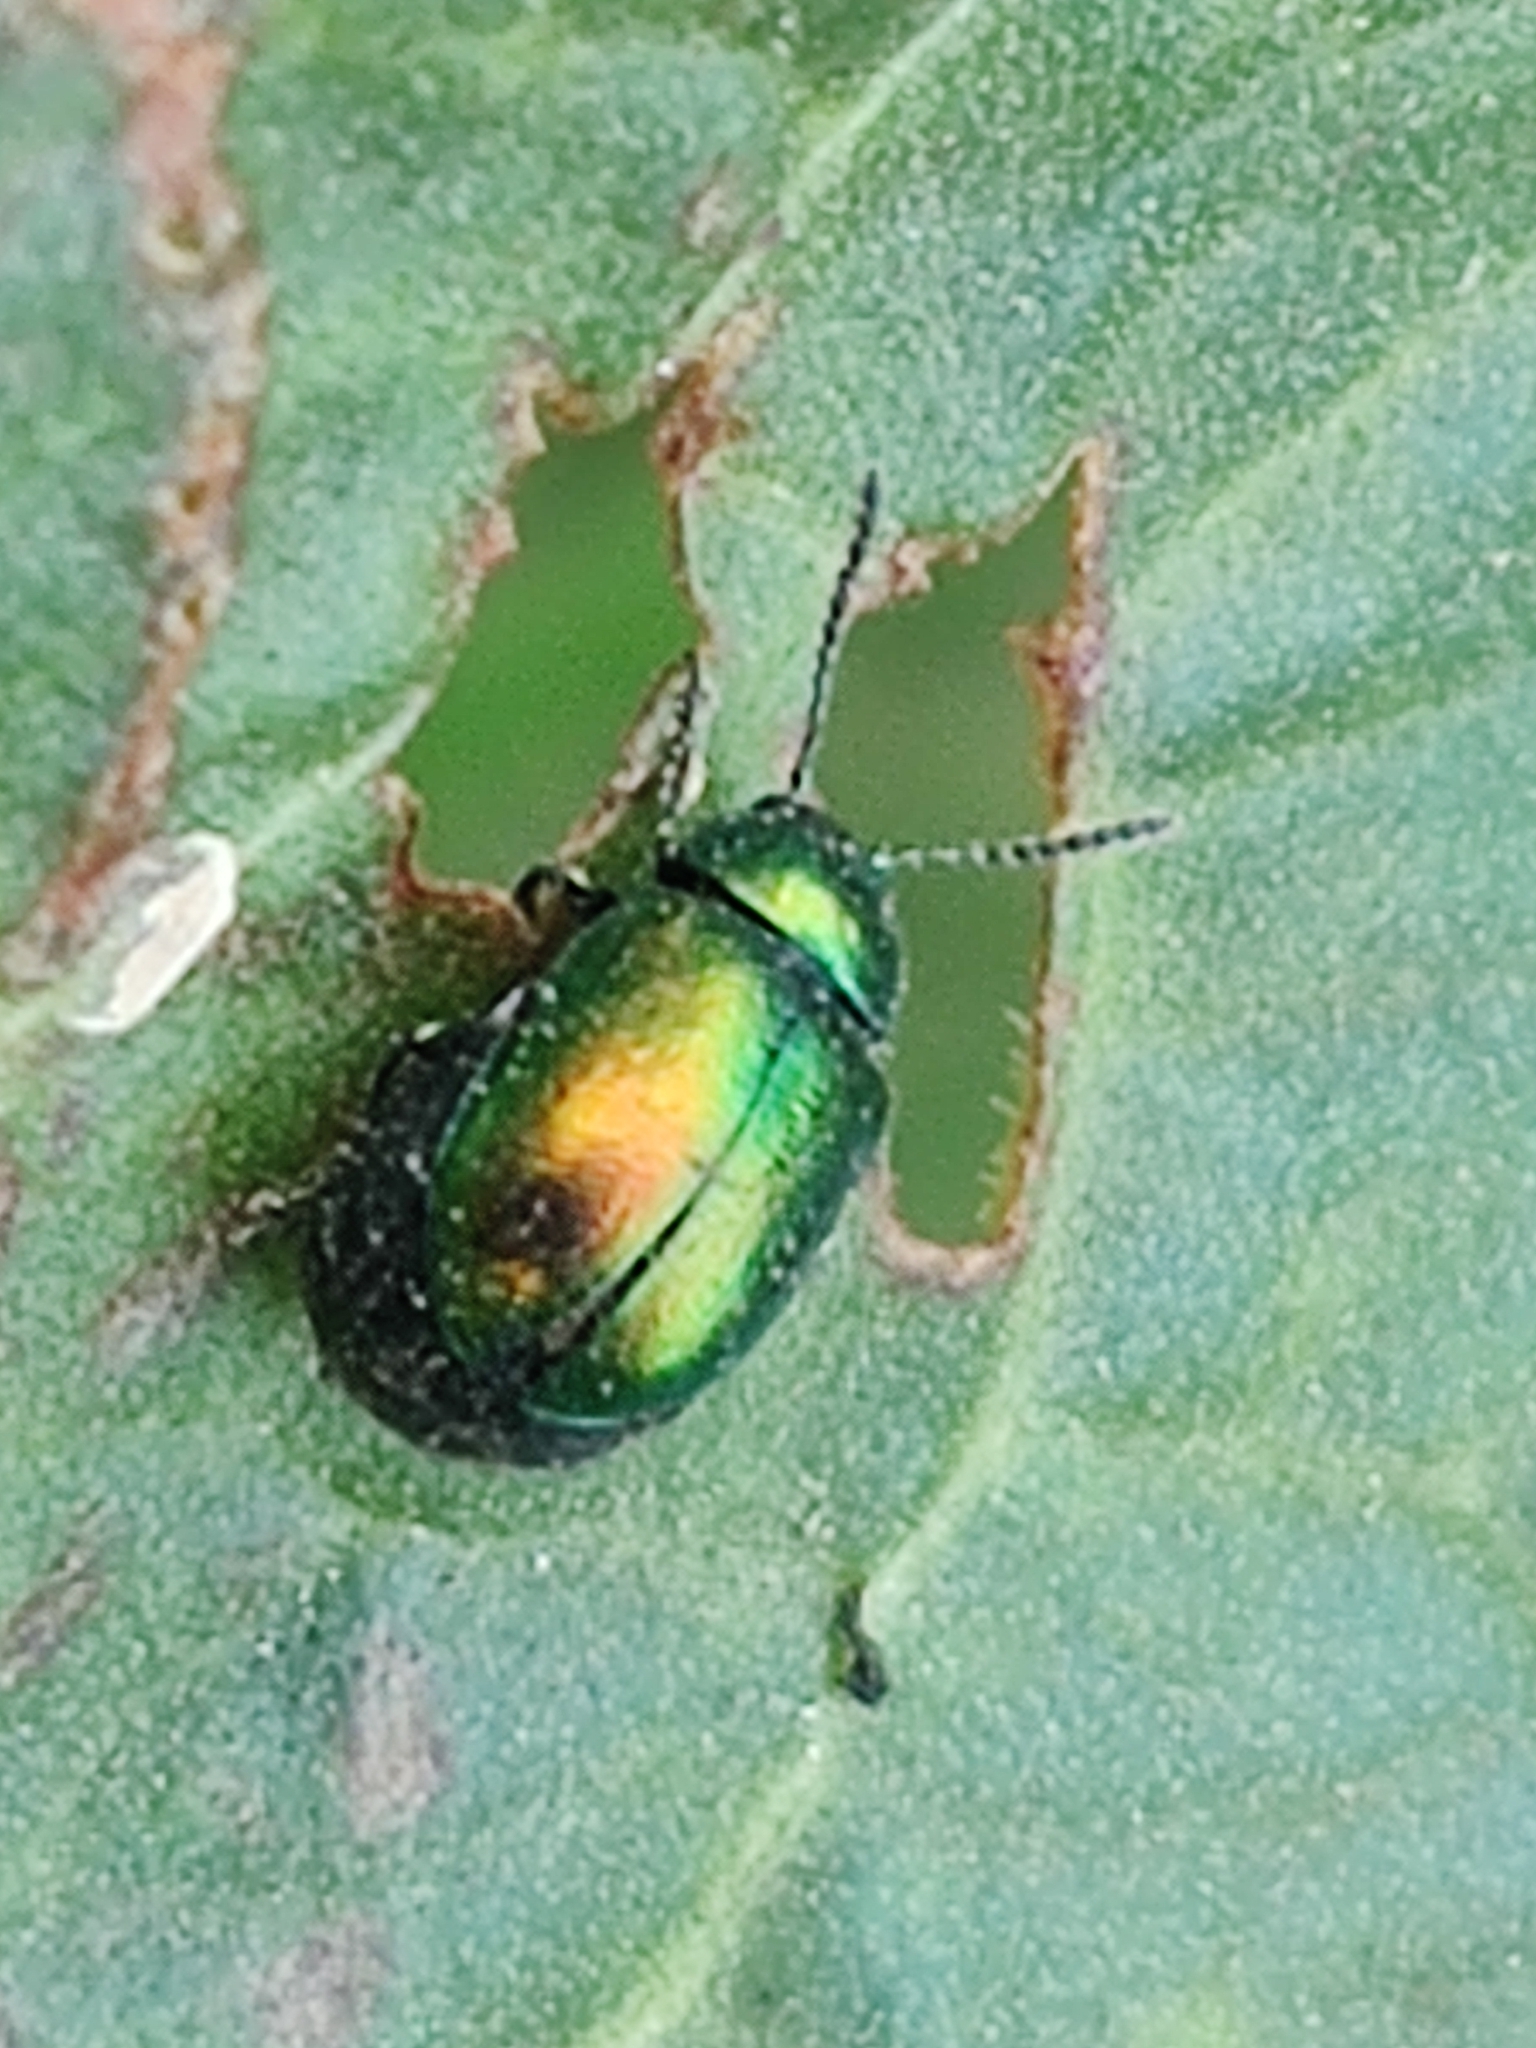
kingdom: Animalia
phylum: Arthropoda
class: Insecta
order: Coleoptera
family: Chrysomelidae
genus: Gastrophysa
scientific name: Gastrophysa viridula
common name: Green dock beetle
